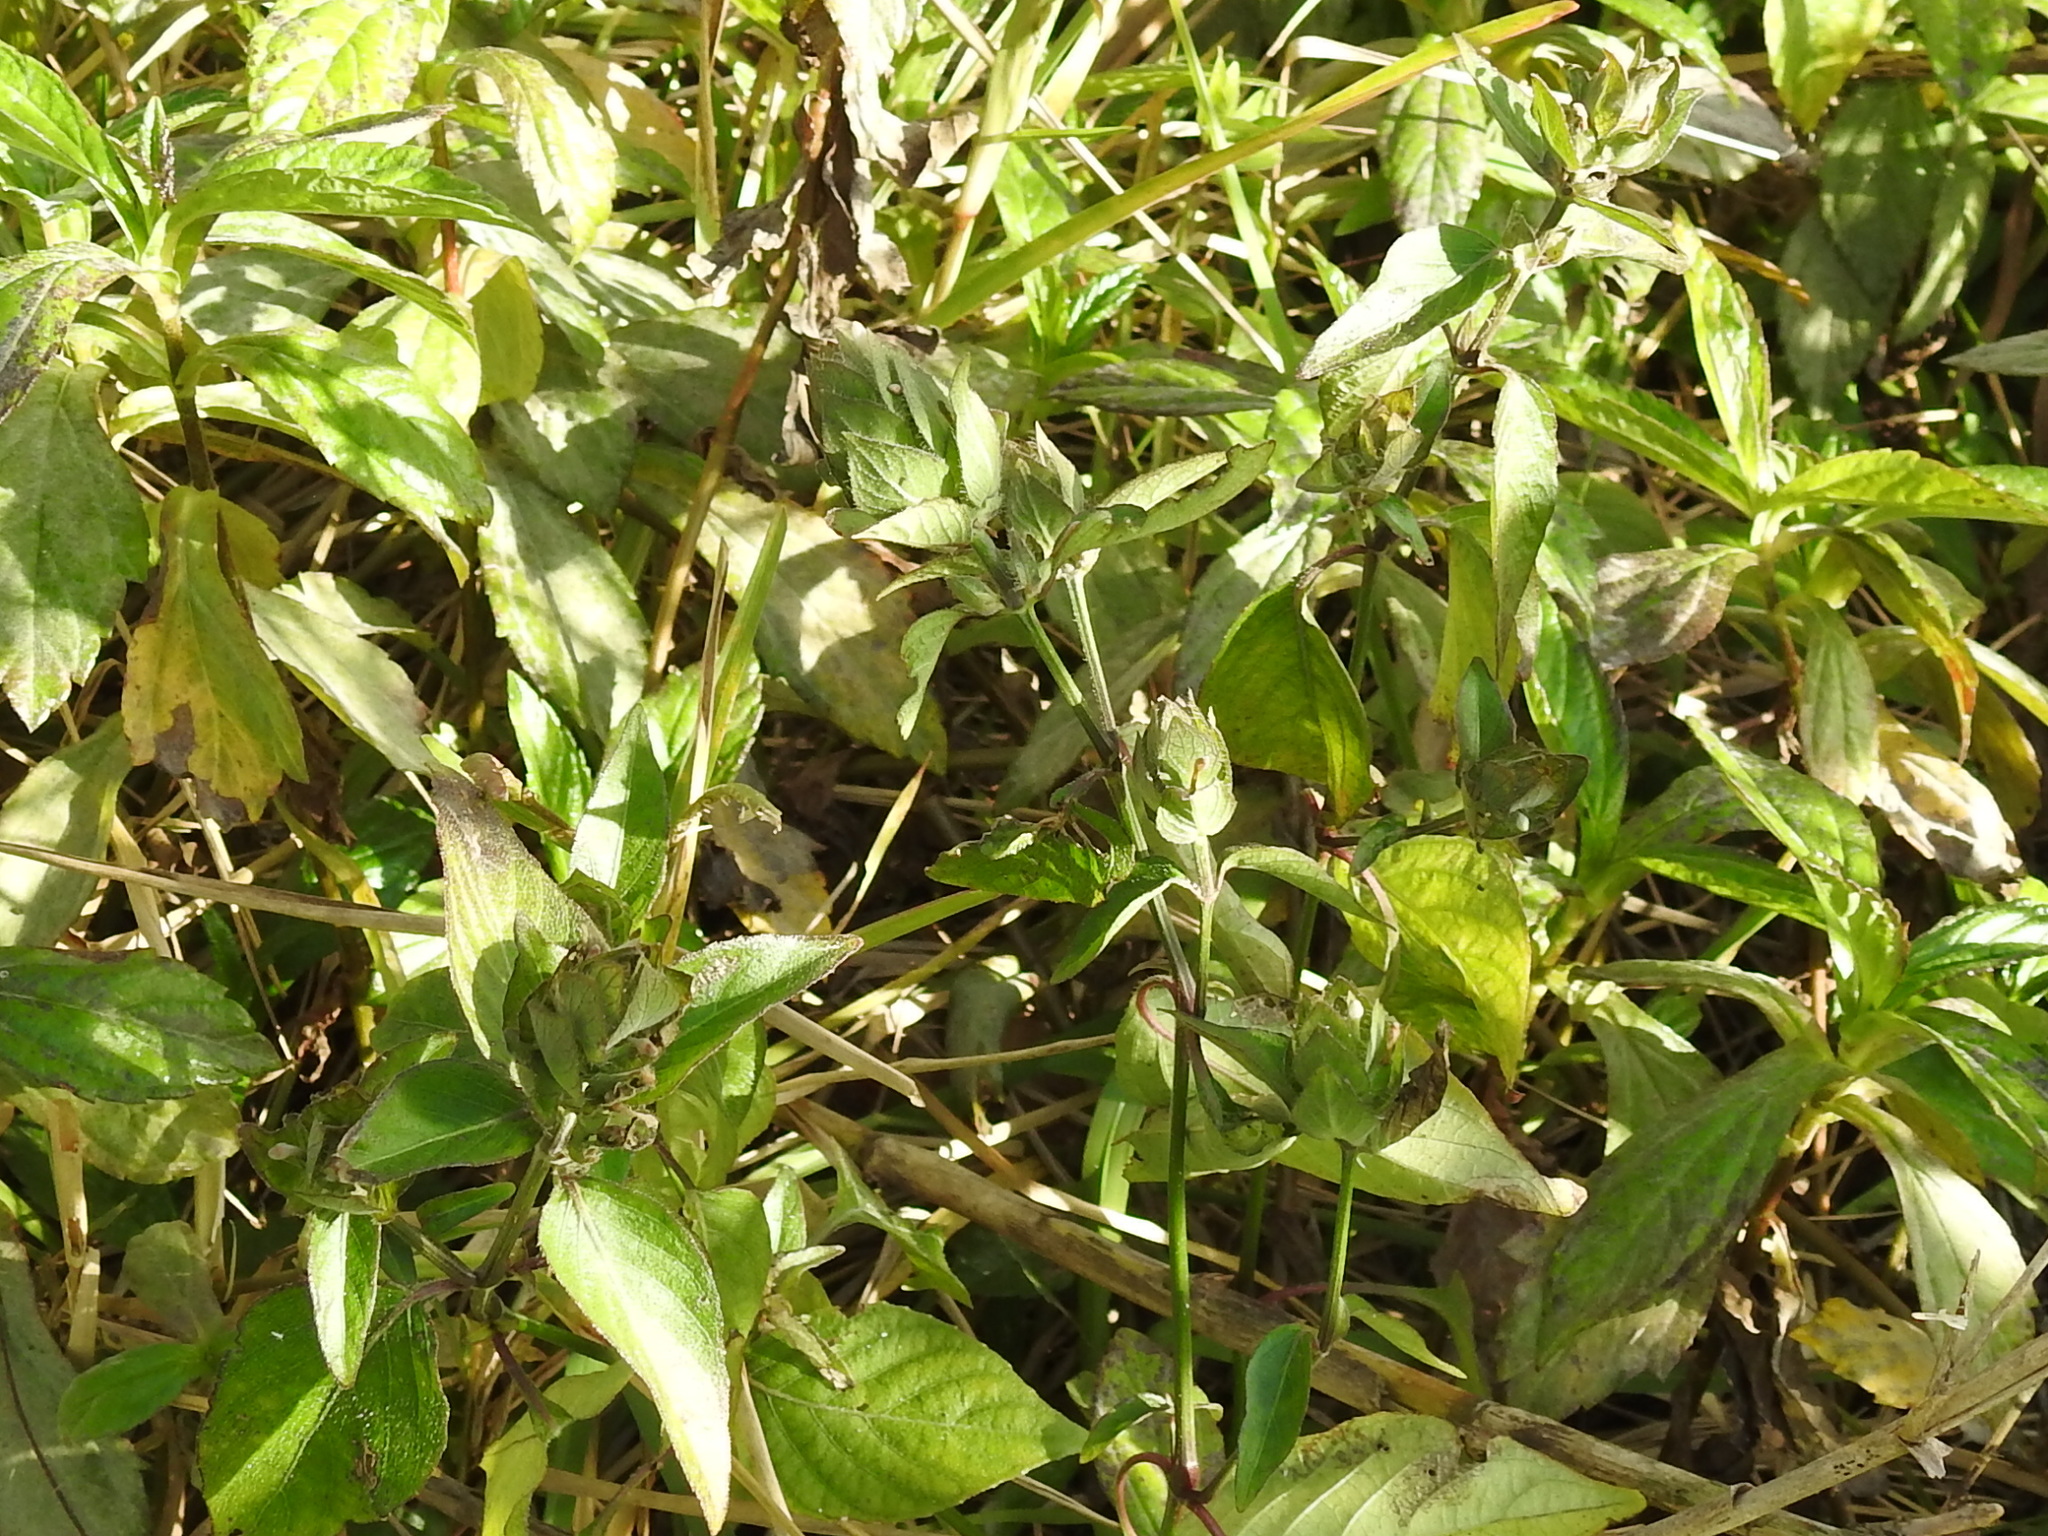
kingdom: Plantae
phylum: Tracheophyta
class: Magnoliopsida
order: Lamiales
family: Acanthaceae
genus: Ruellia
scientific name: Ruellia blechum
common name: Browne's blechum
